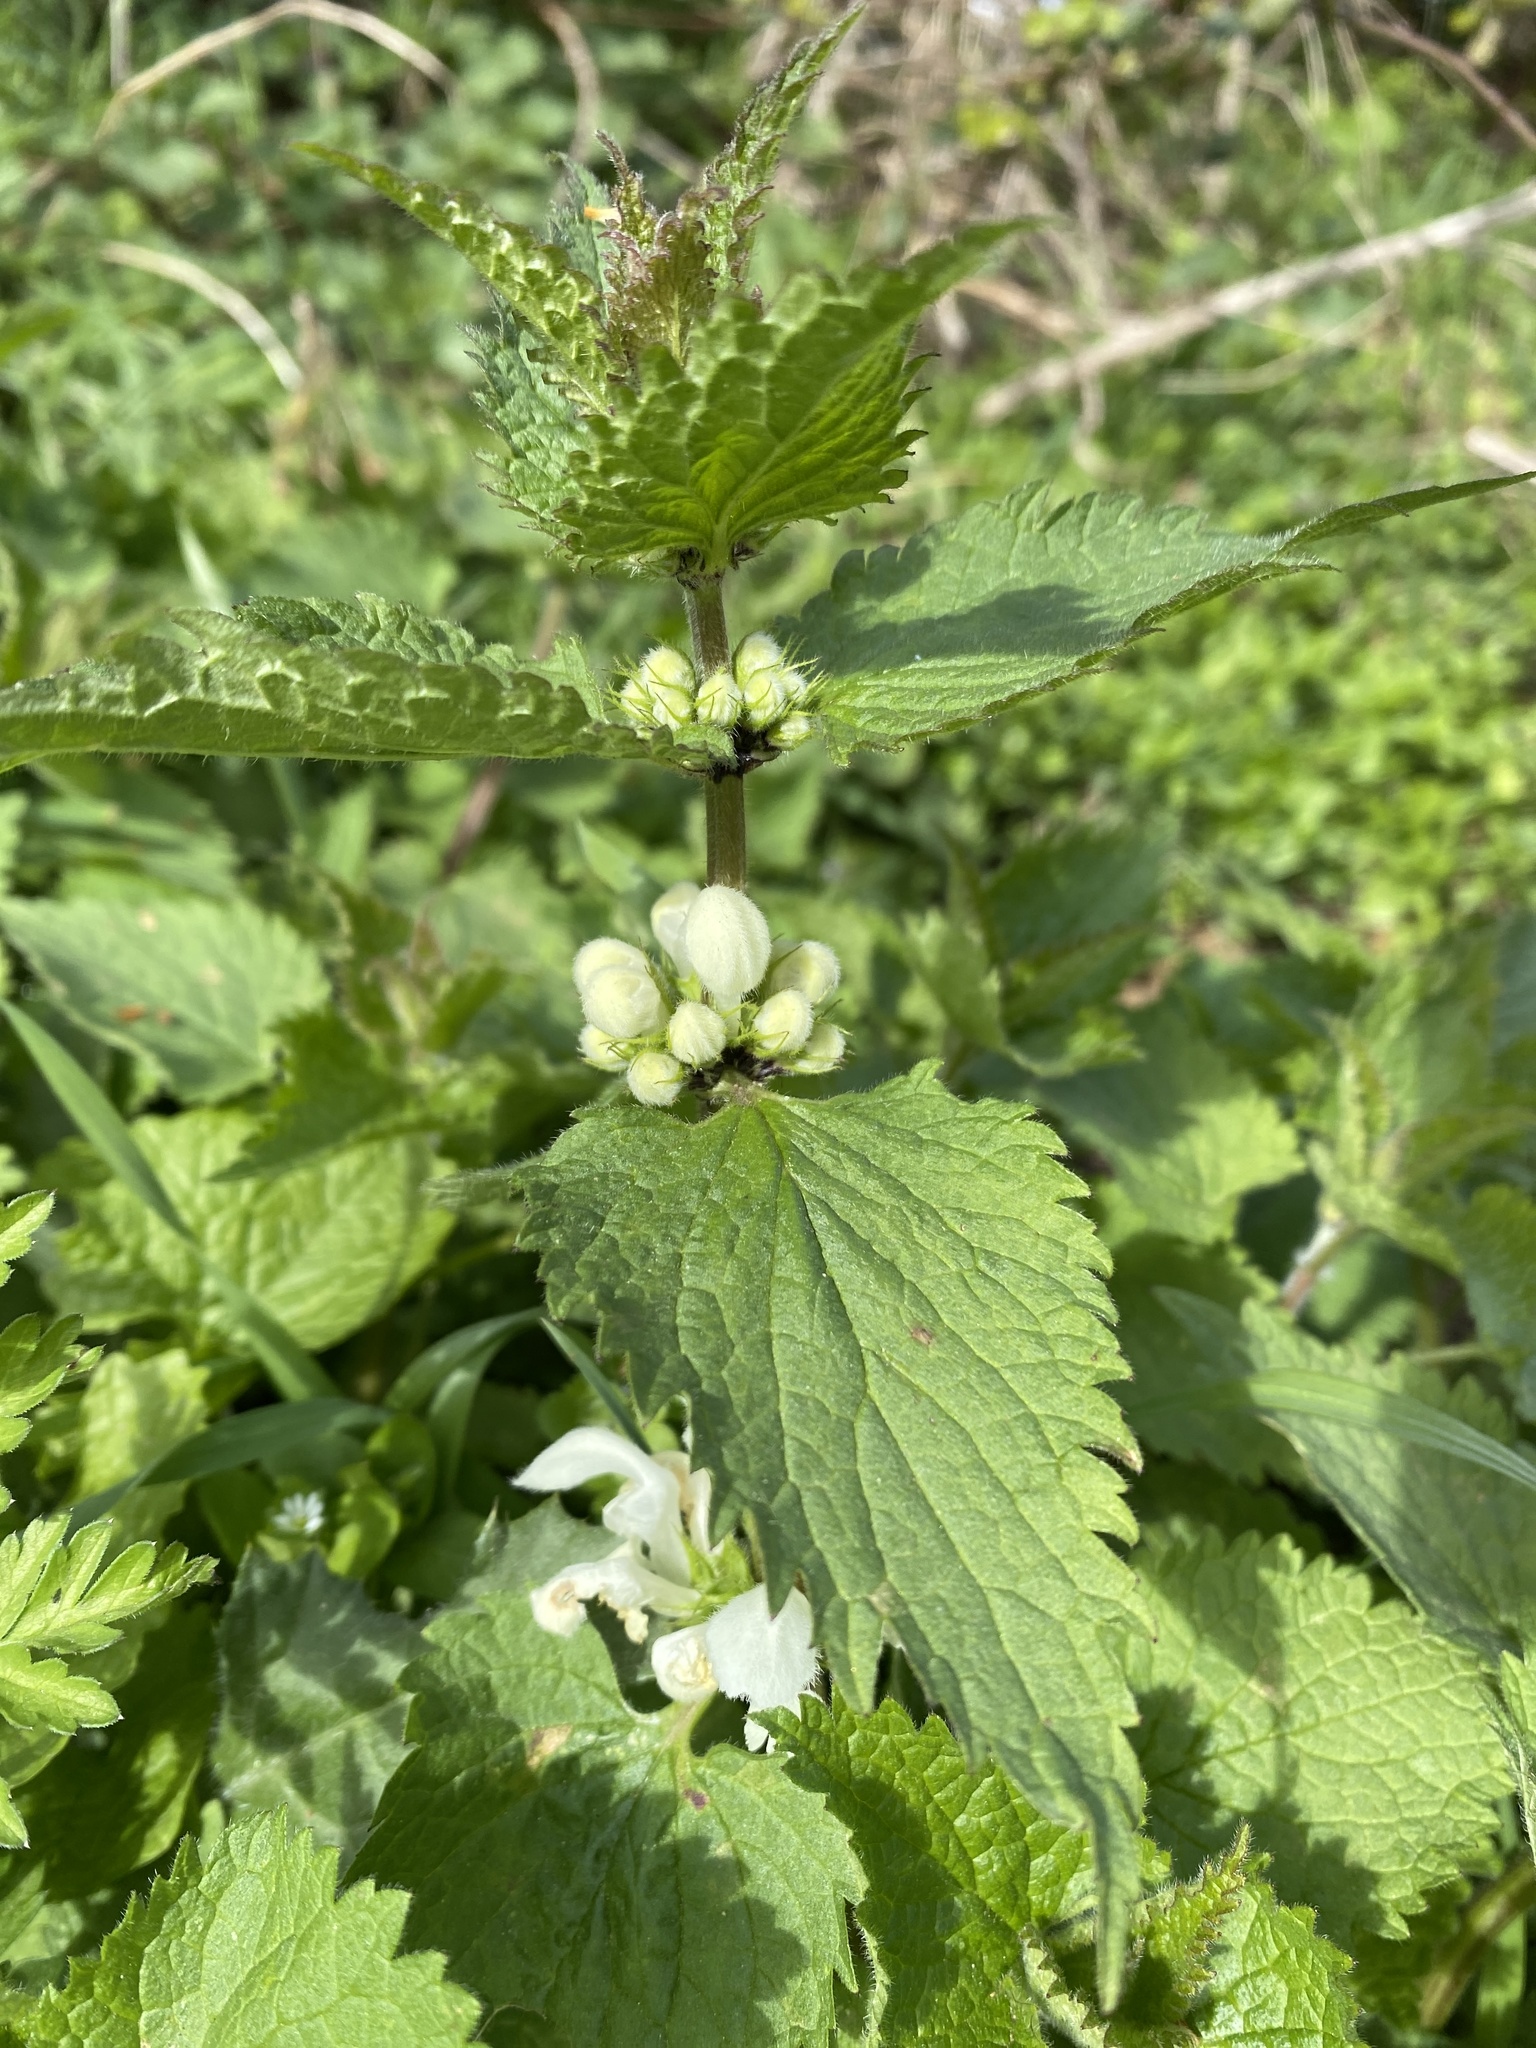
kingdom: Plantae
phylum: Tracheophyta
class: Magnoliopsida
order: Lamiales
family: Lamiaceae
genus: Lamium
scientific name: Lamium album
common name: White dead-nettle
